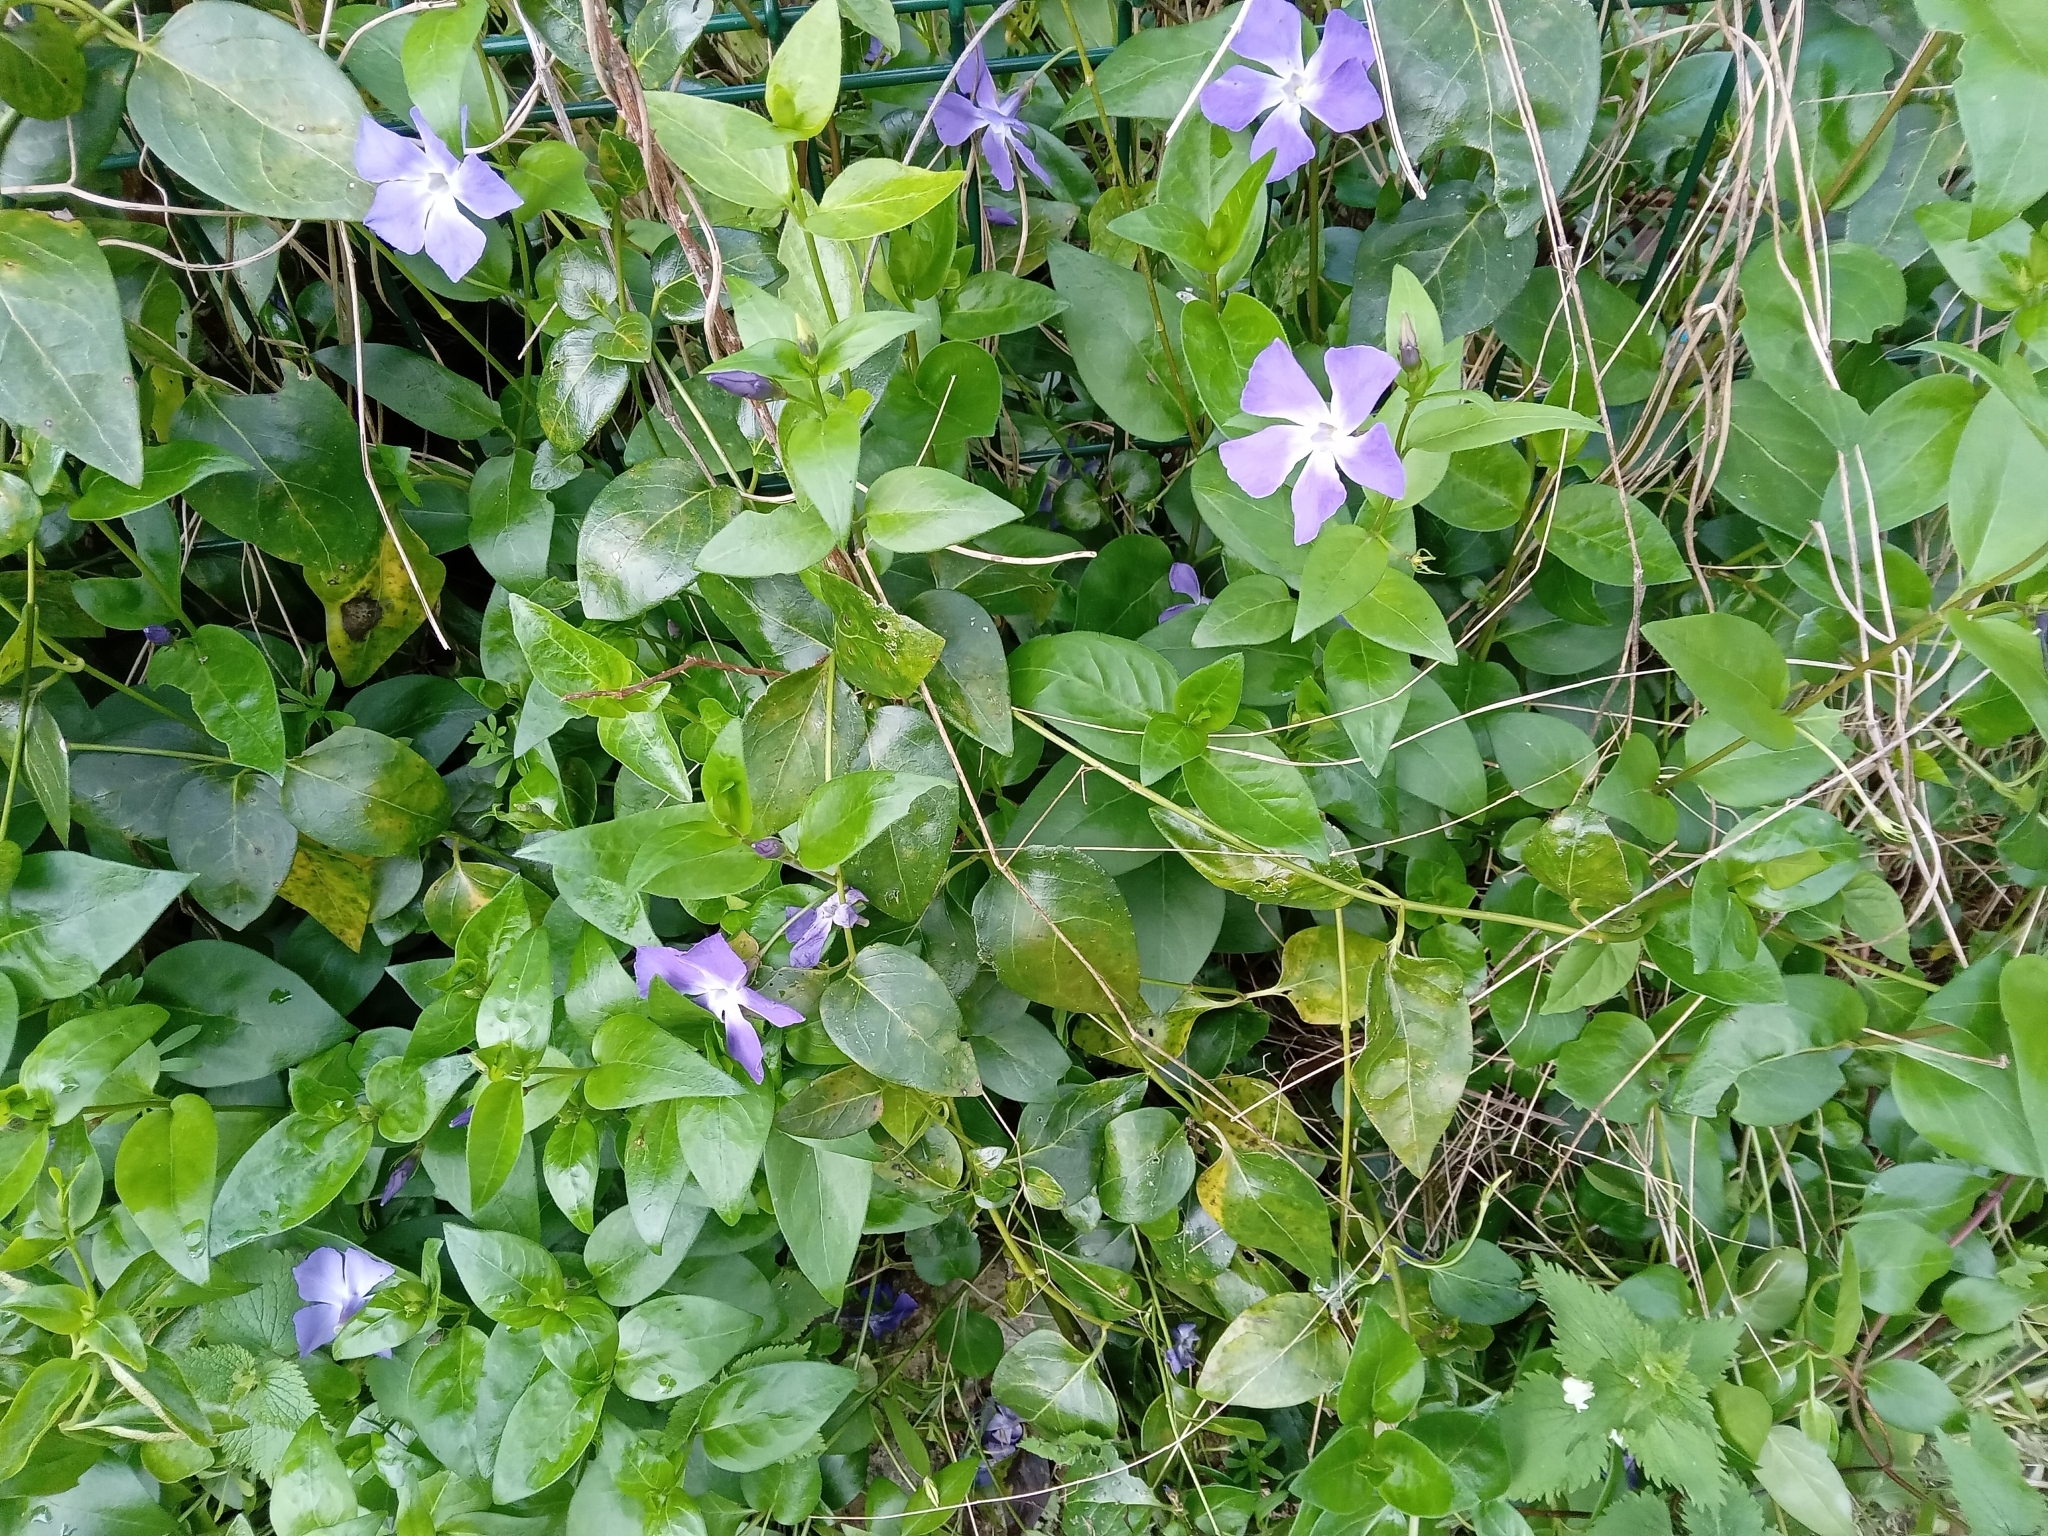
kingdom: Plantae
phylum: Tracheophyta
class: Magnoliopsida
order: Gentianales
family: Apocynaceae
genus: Vinca
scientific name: Vinca major
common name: Greater periwinkle
